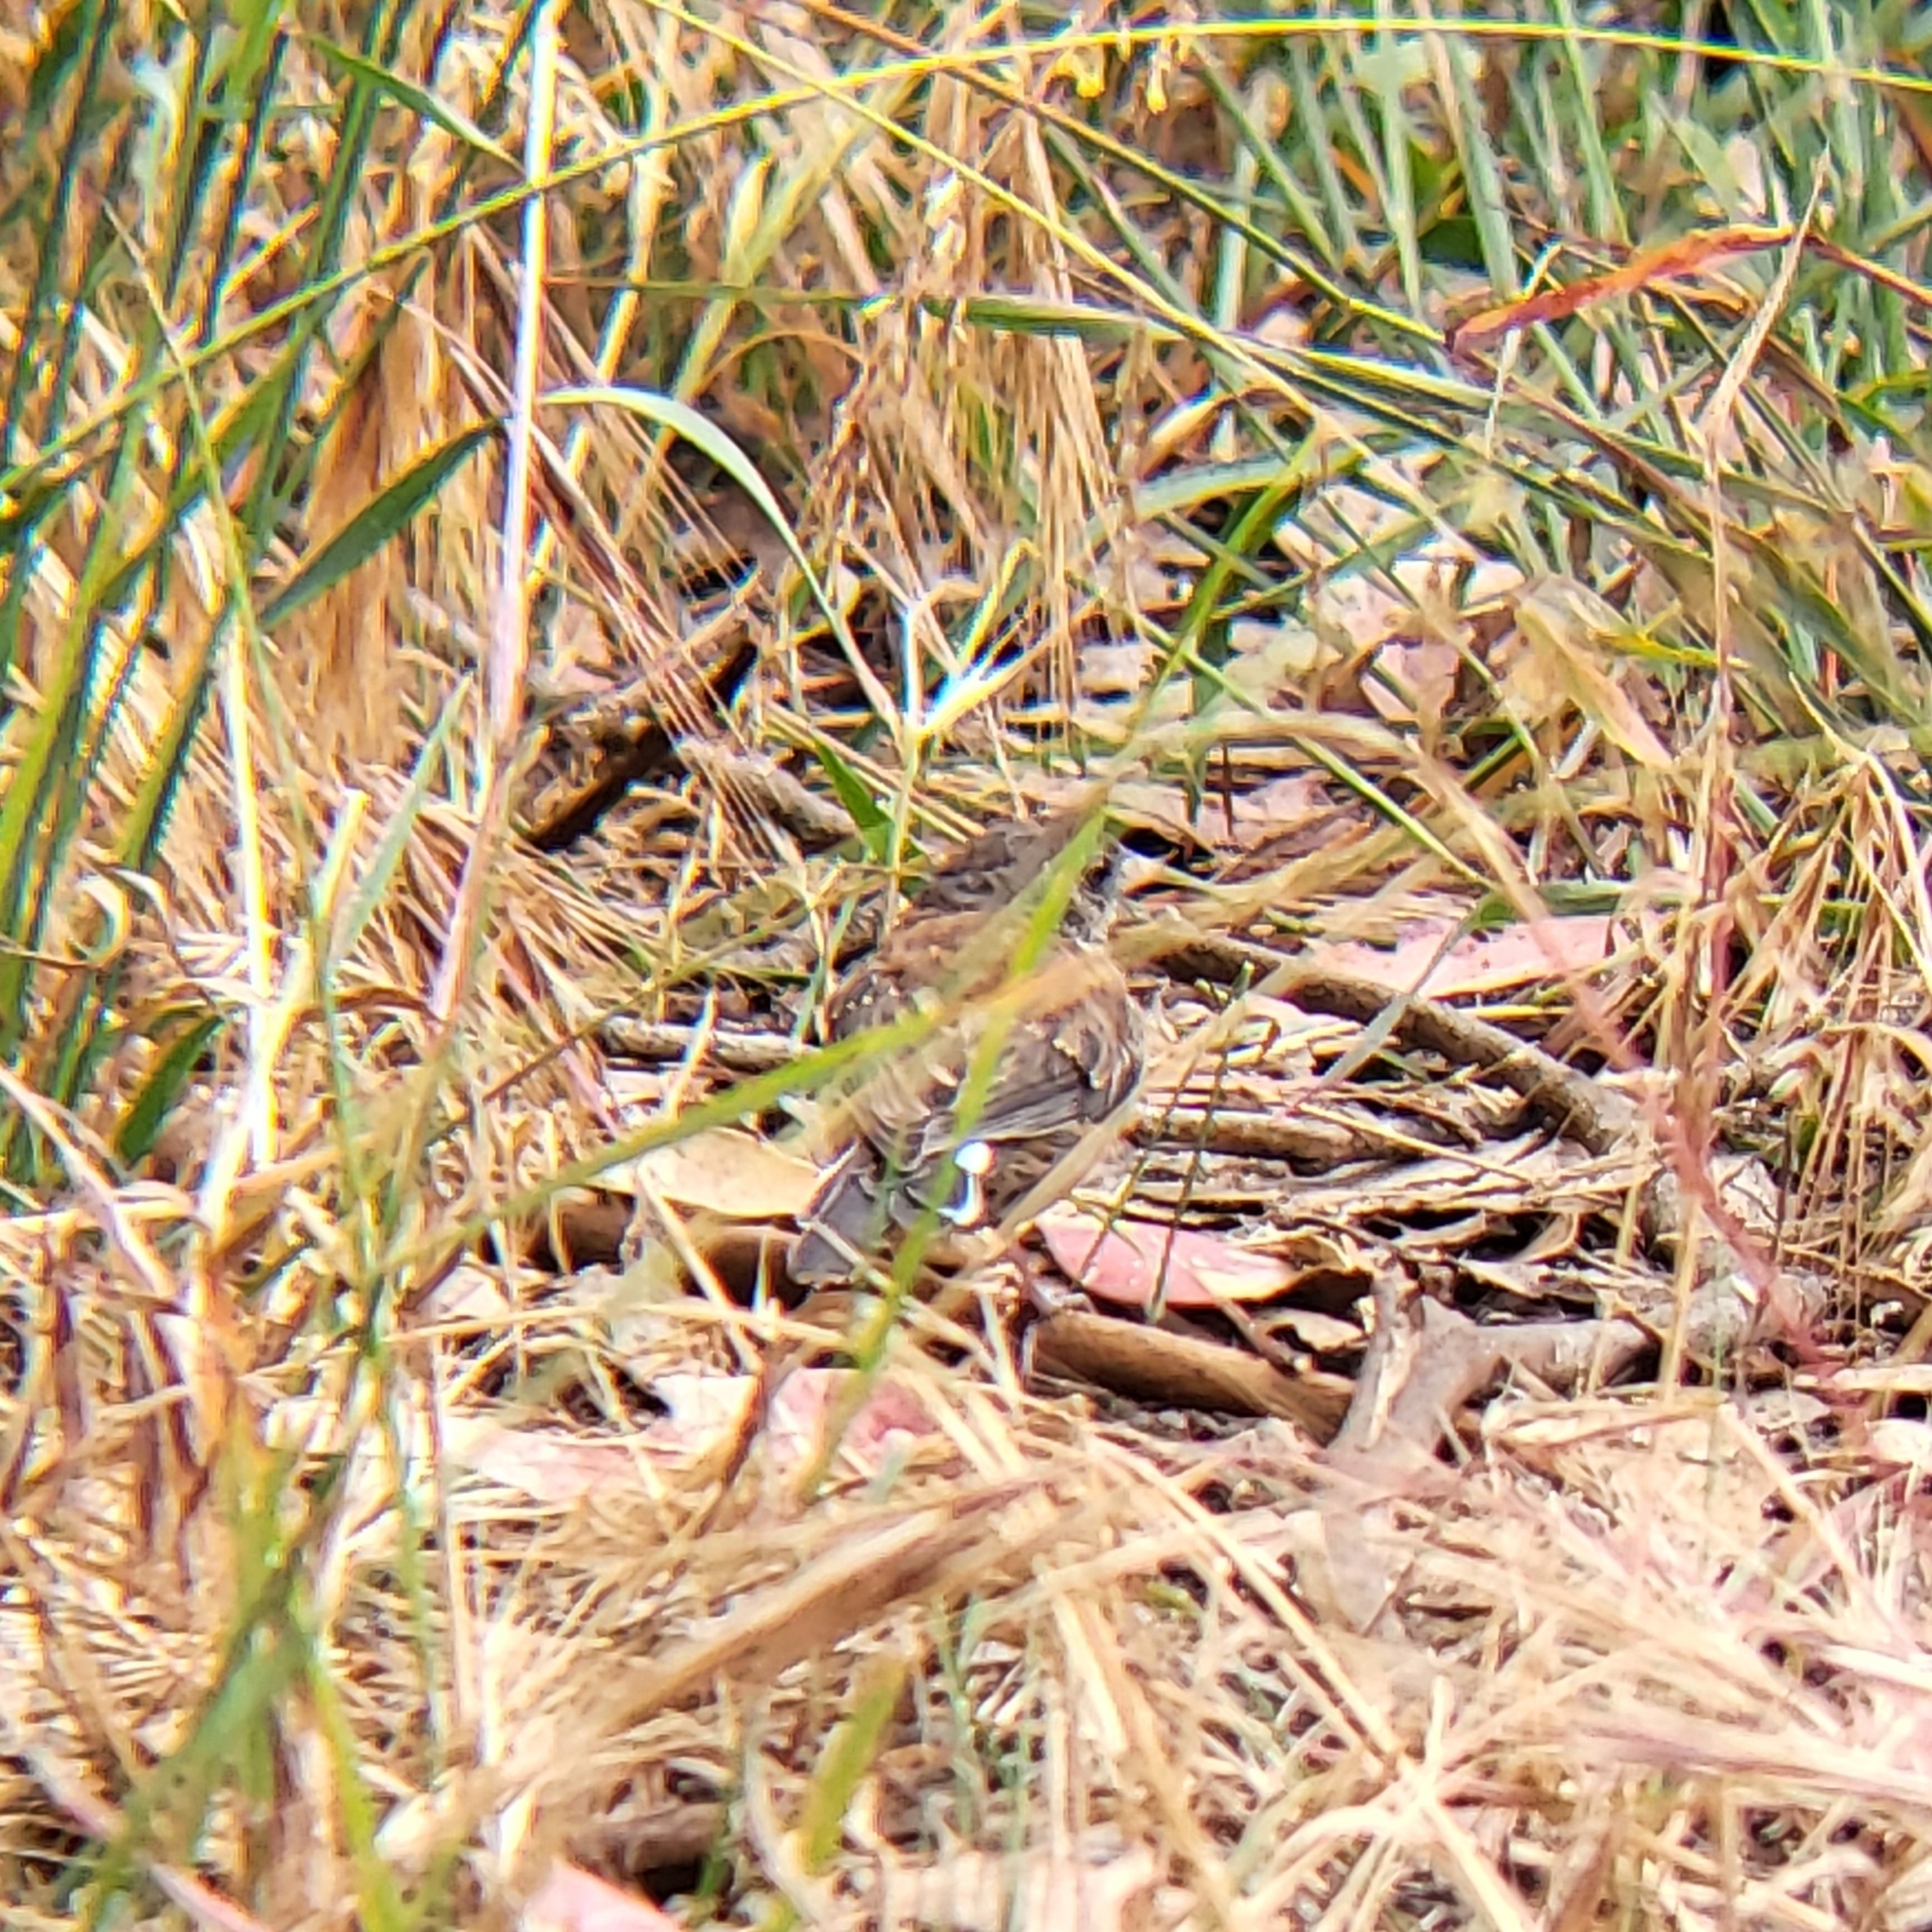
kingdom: Animalia
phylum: Chordata
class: Aves
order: Passeriformes
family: Passerellidae
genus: Junco
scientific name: Junco hyemalis
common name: Dark-eyed junco
